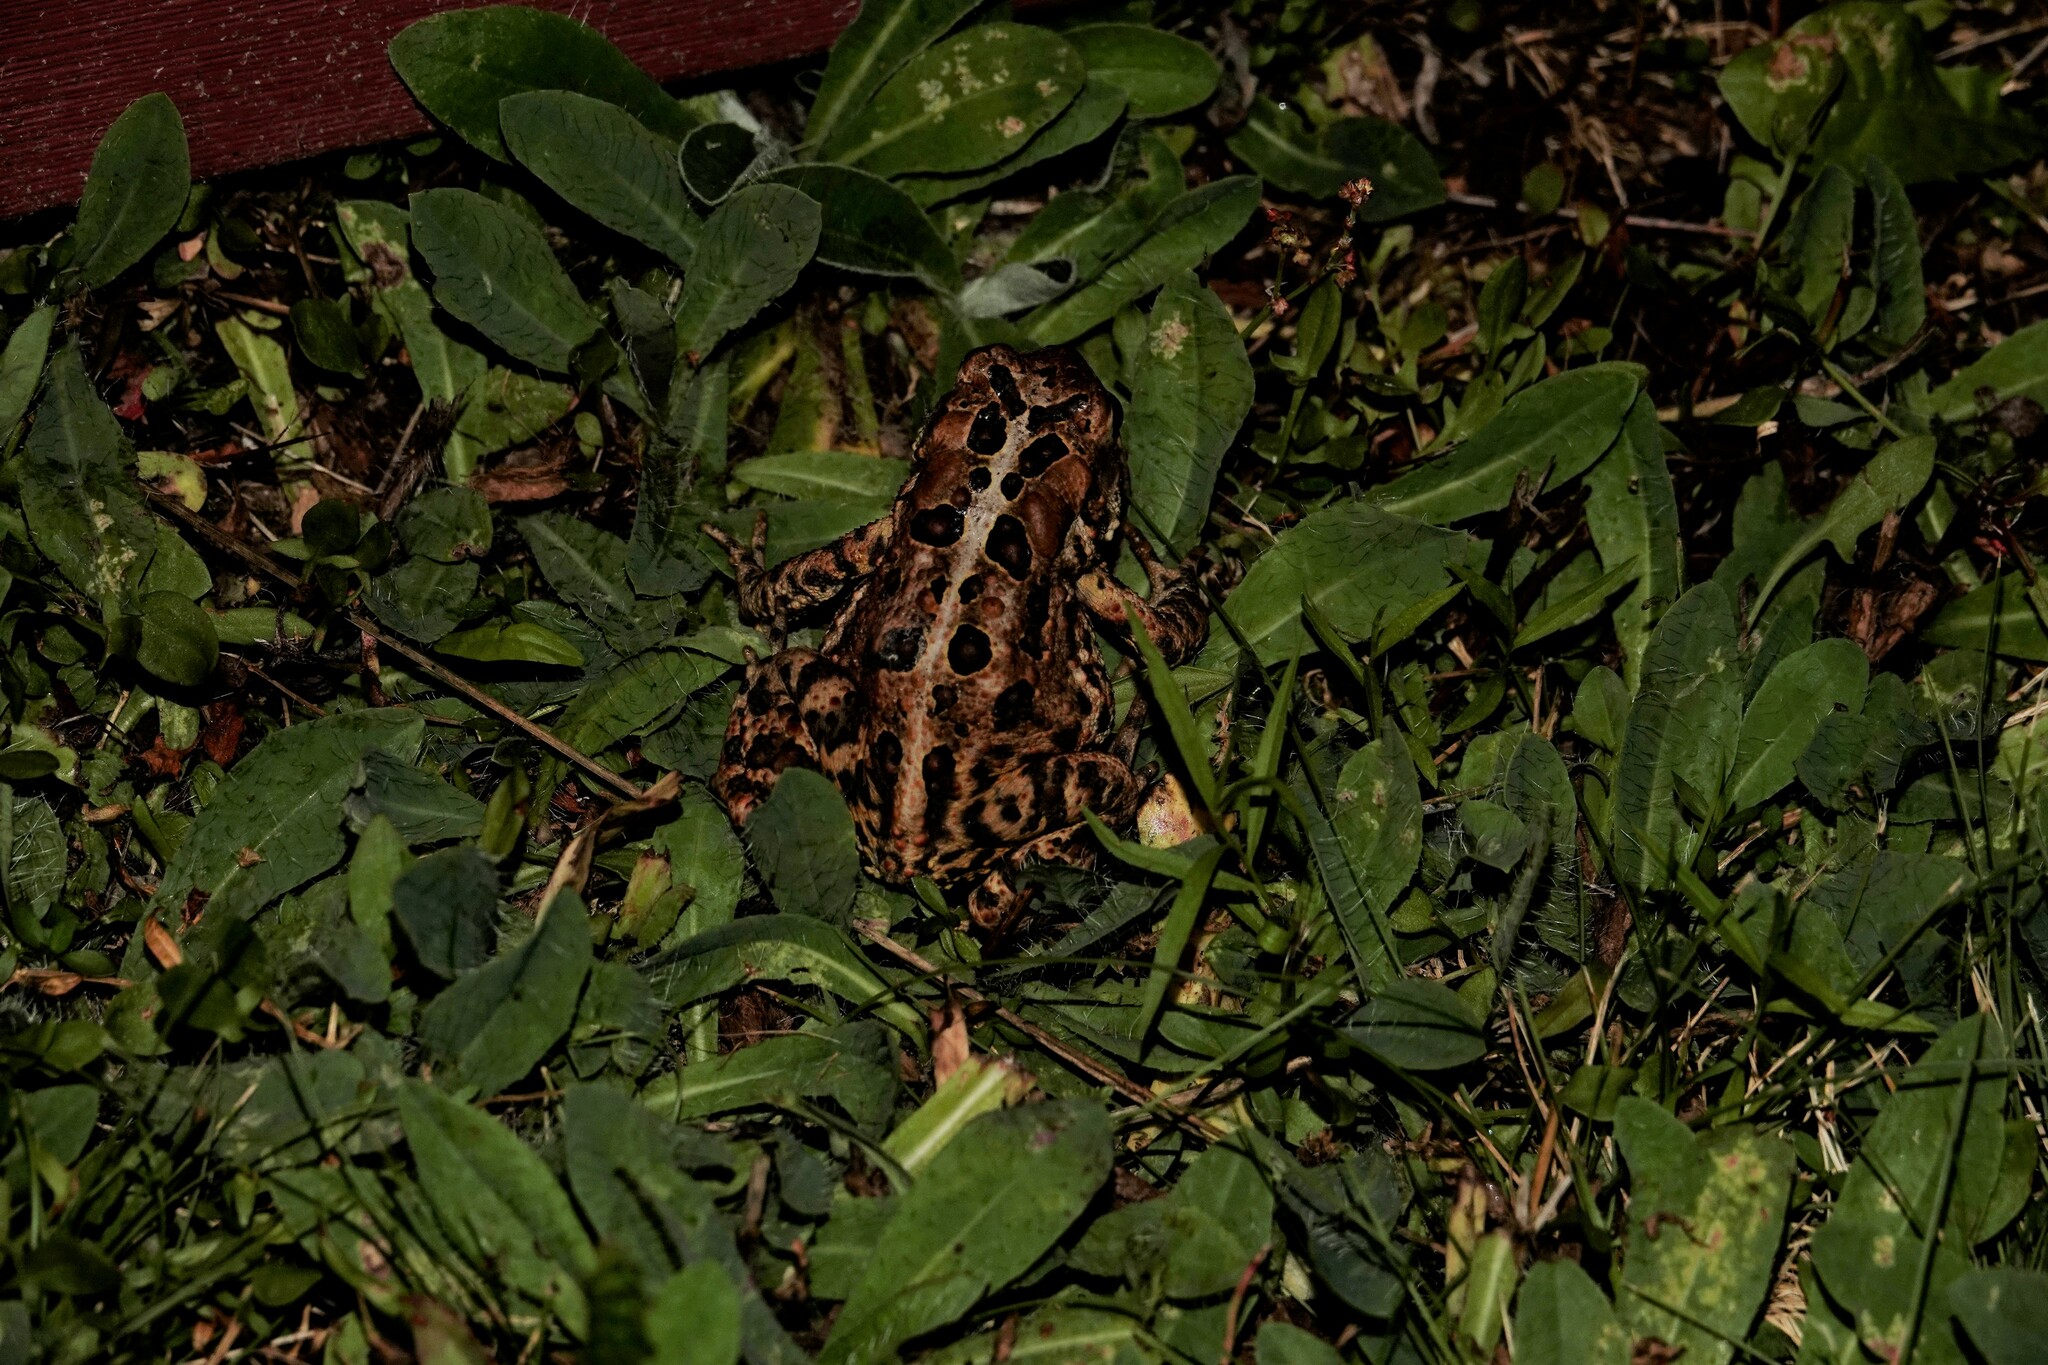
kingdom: Animalia
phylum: Chordata
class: Amphibia
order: Anura
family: Bufonidae
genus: Anaxyrus
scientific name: Anaxyrus americanus
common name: American toad
